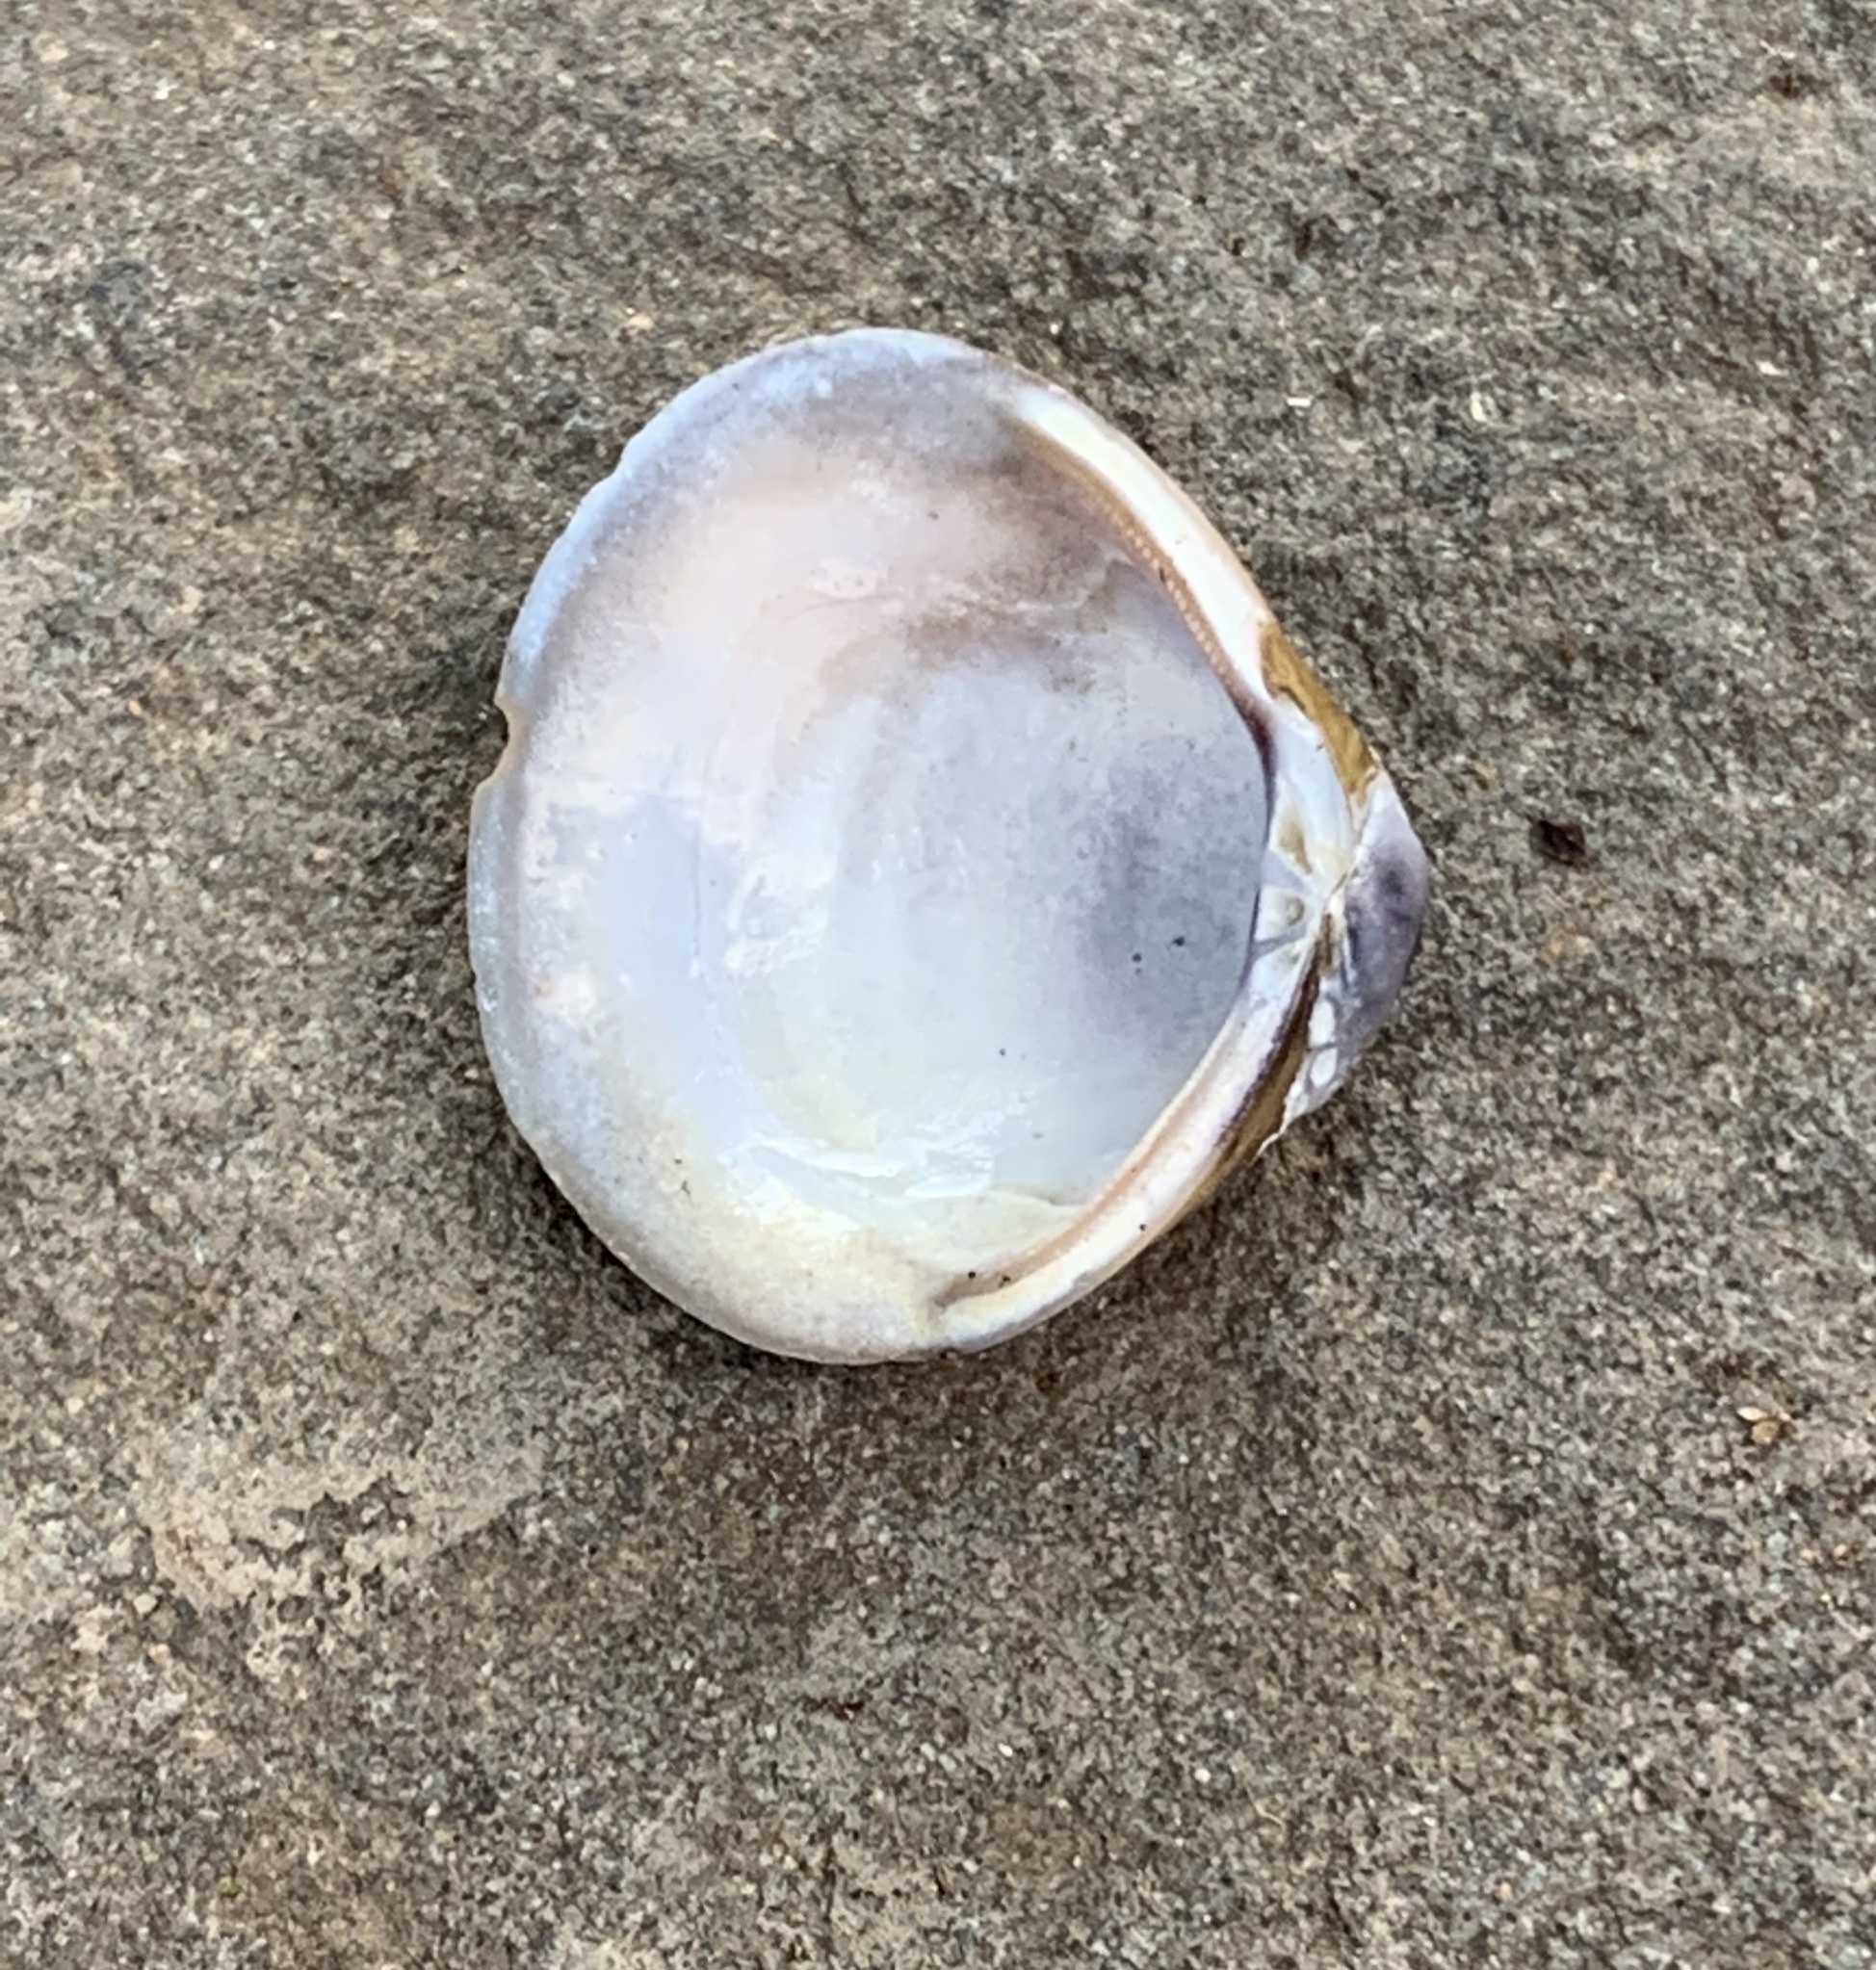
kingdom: Animalia
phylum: Mollusca
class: Bivalvia
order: Venerida
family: Cyrenidae
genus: Corbicula
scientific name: Corbicula fluminea
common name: Asian clam
